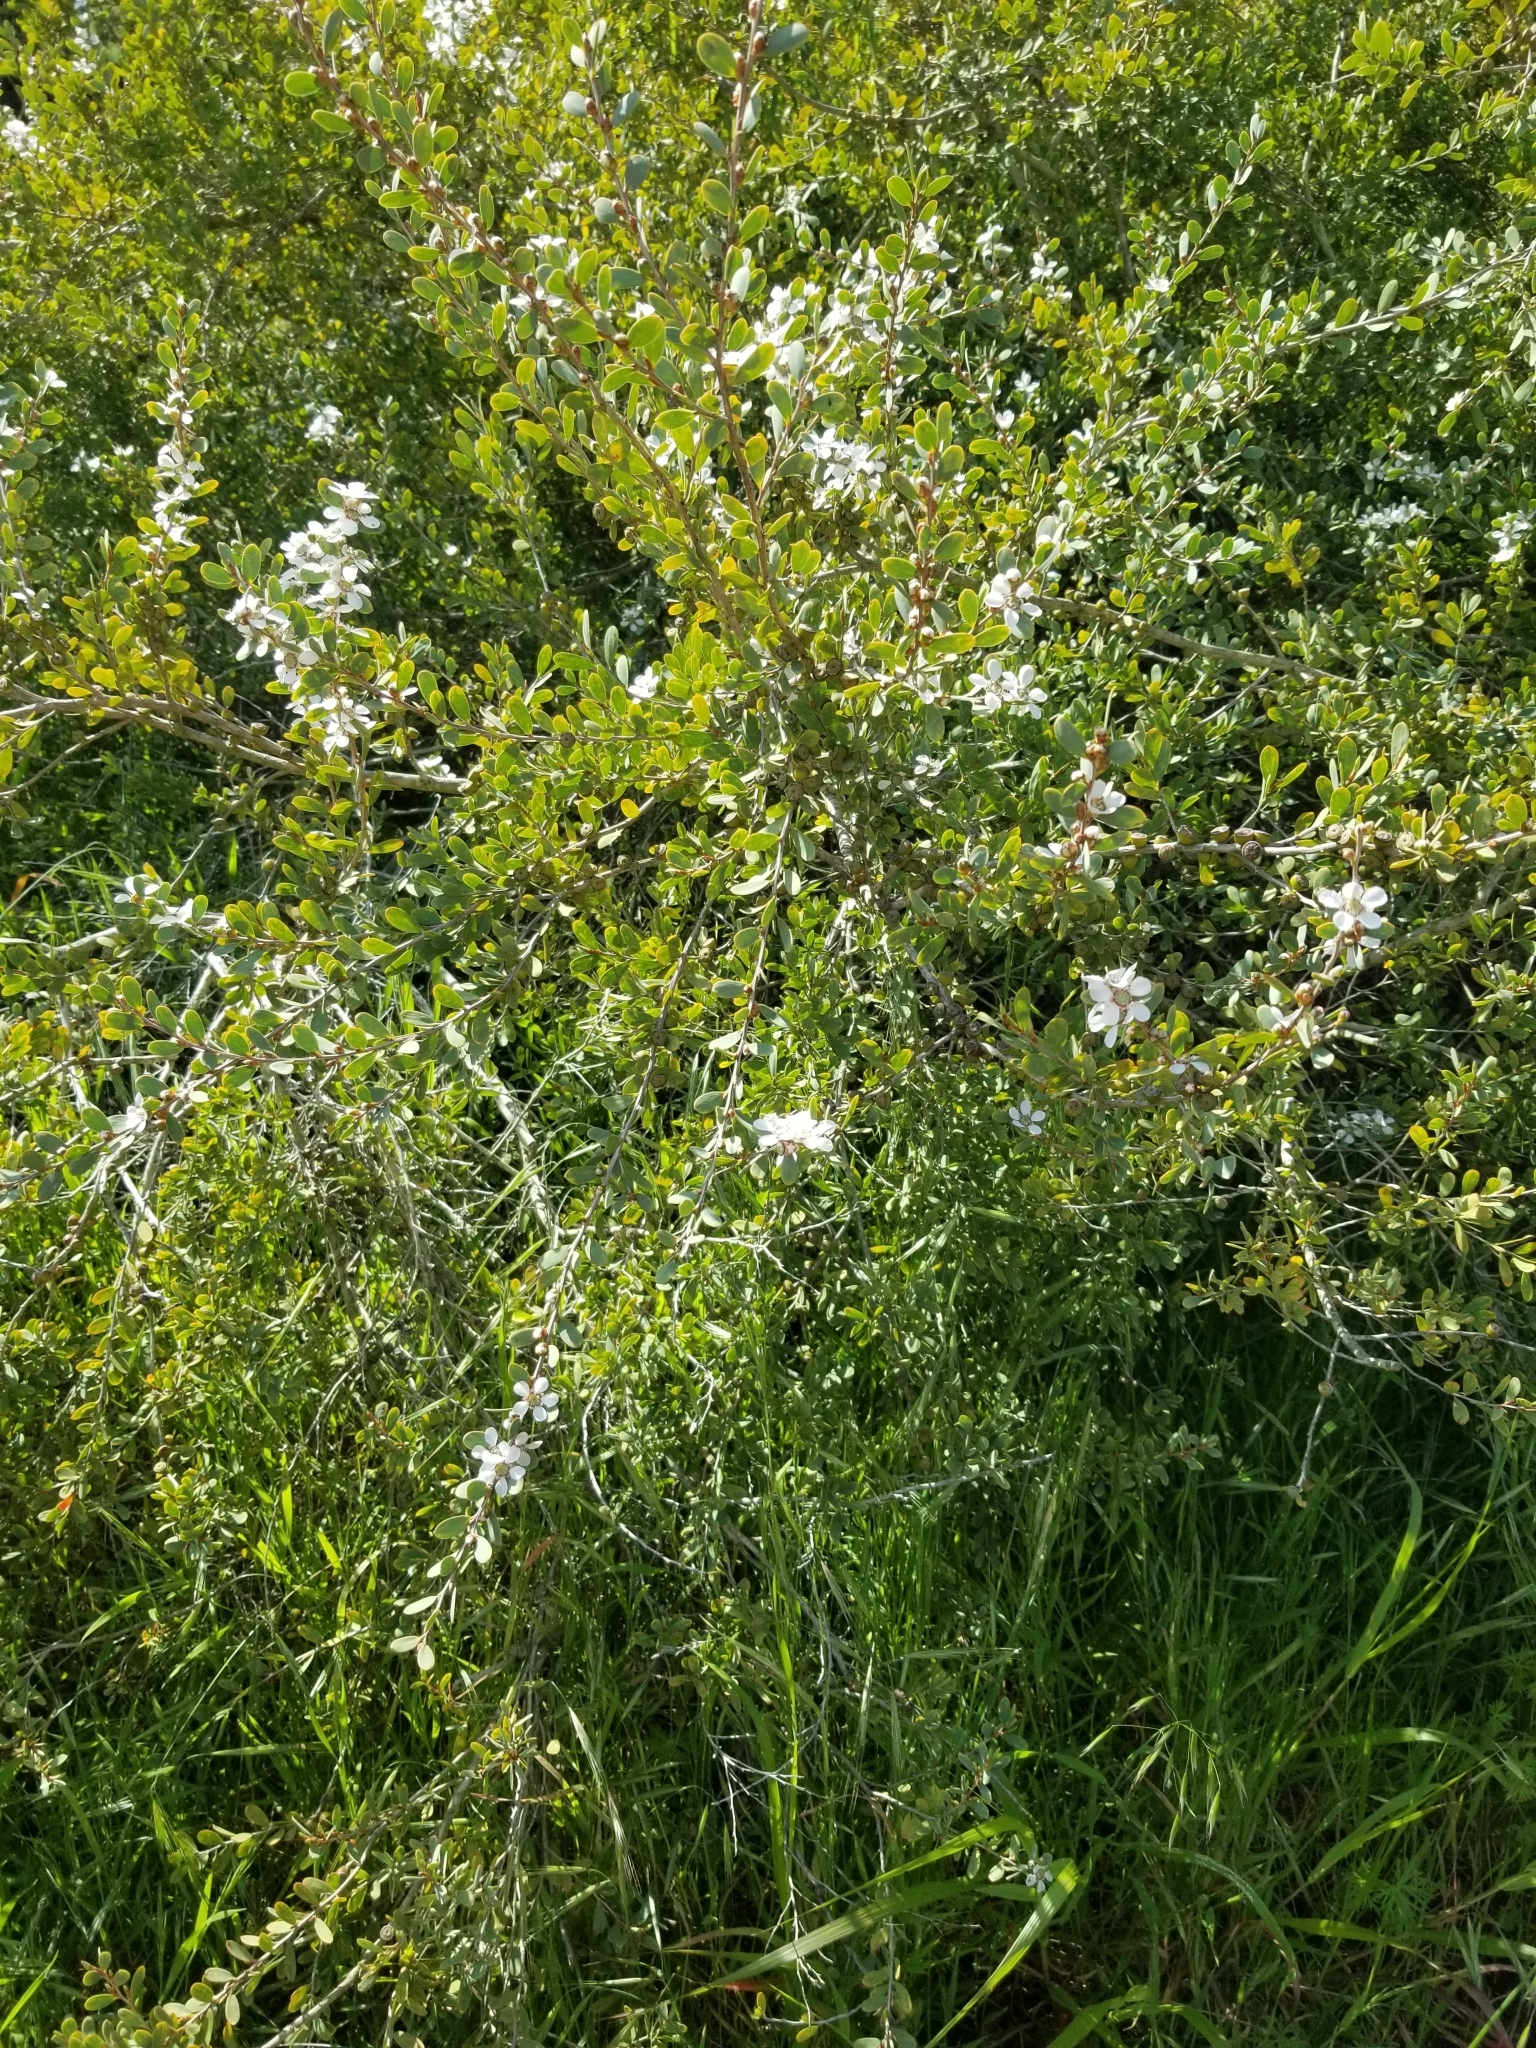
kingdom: Plantae
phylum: Tracheophyta
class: Magnoliopsida
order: Myrtales
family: Myrtaceae
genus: Leptospermum
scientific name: Leptospermum laevigatum
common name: Australian teatree
